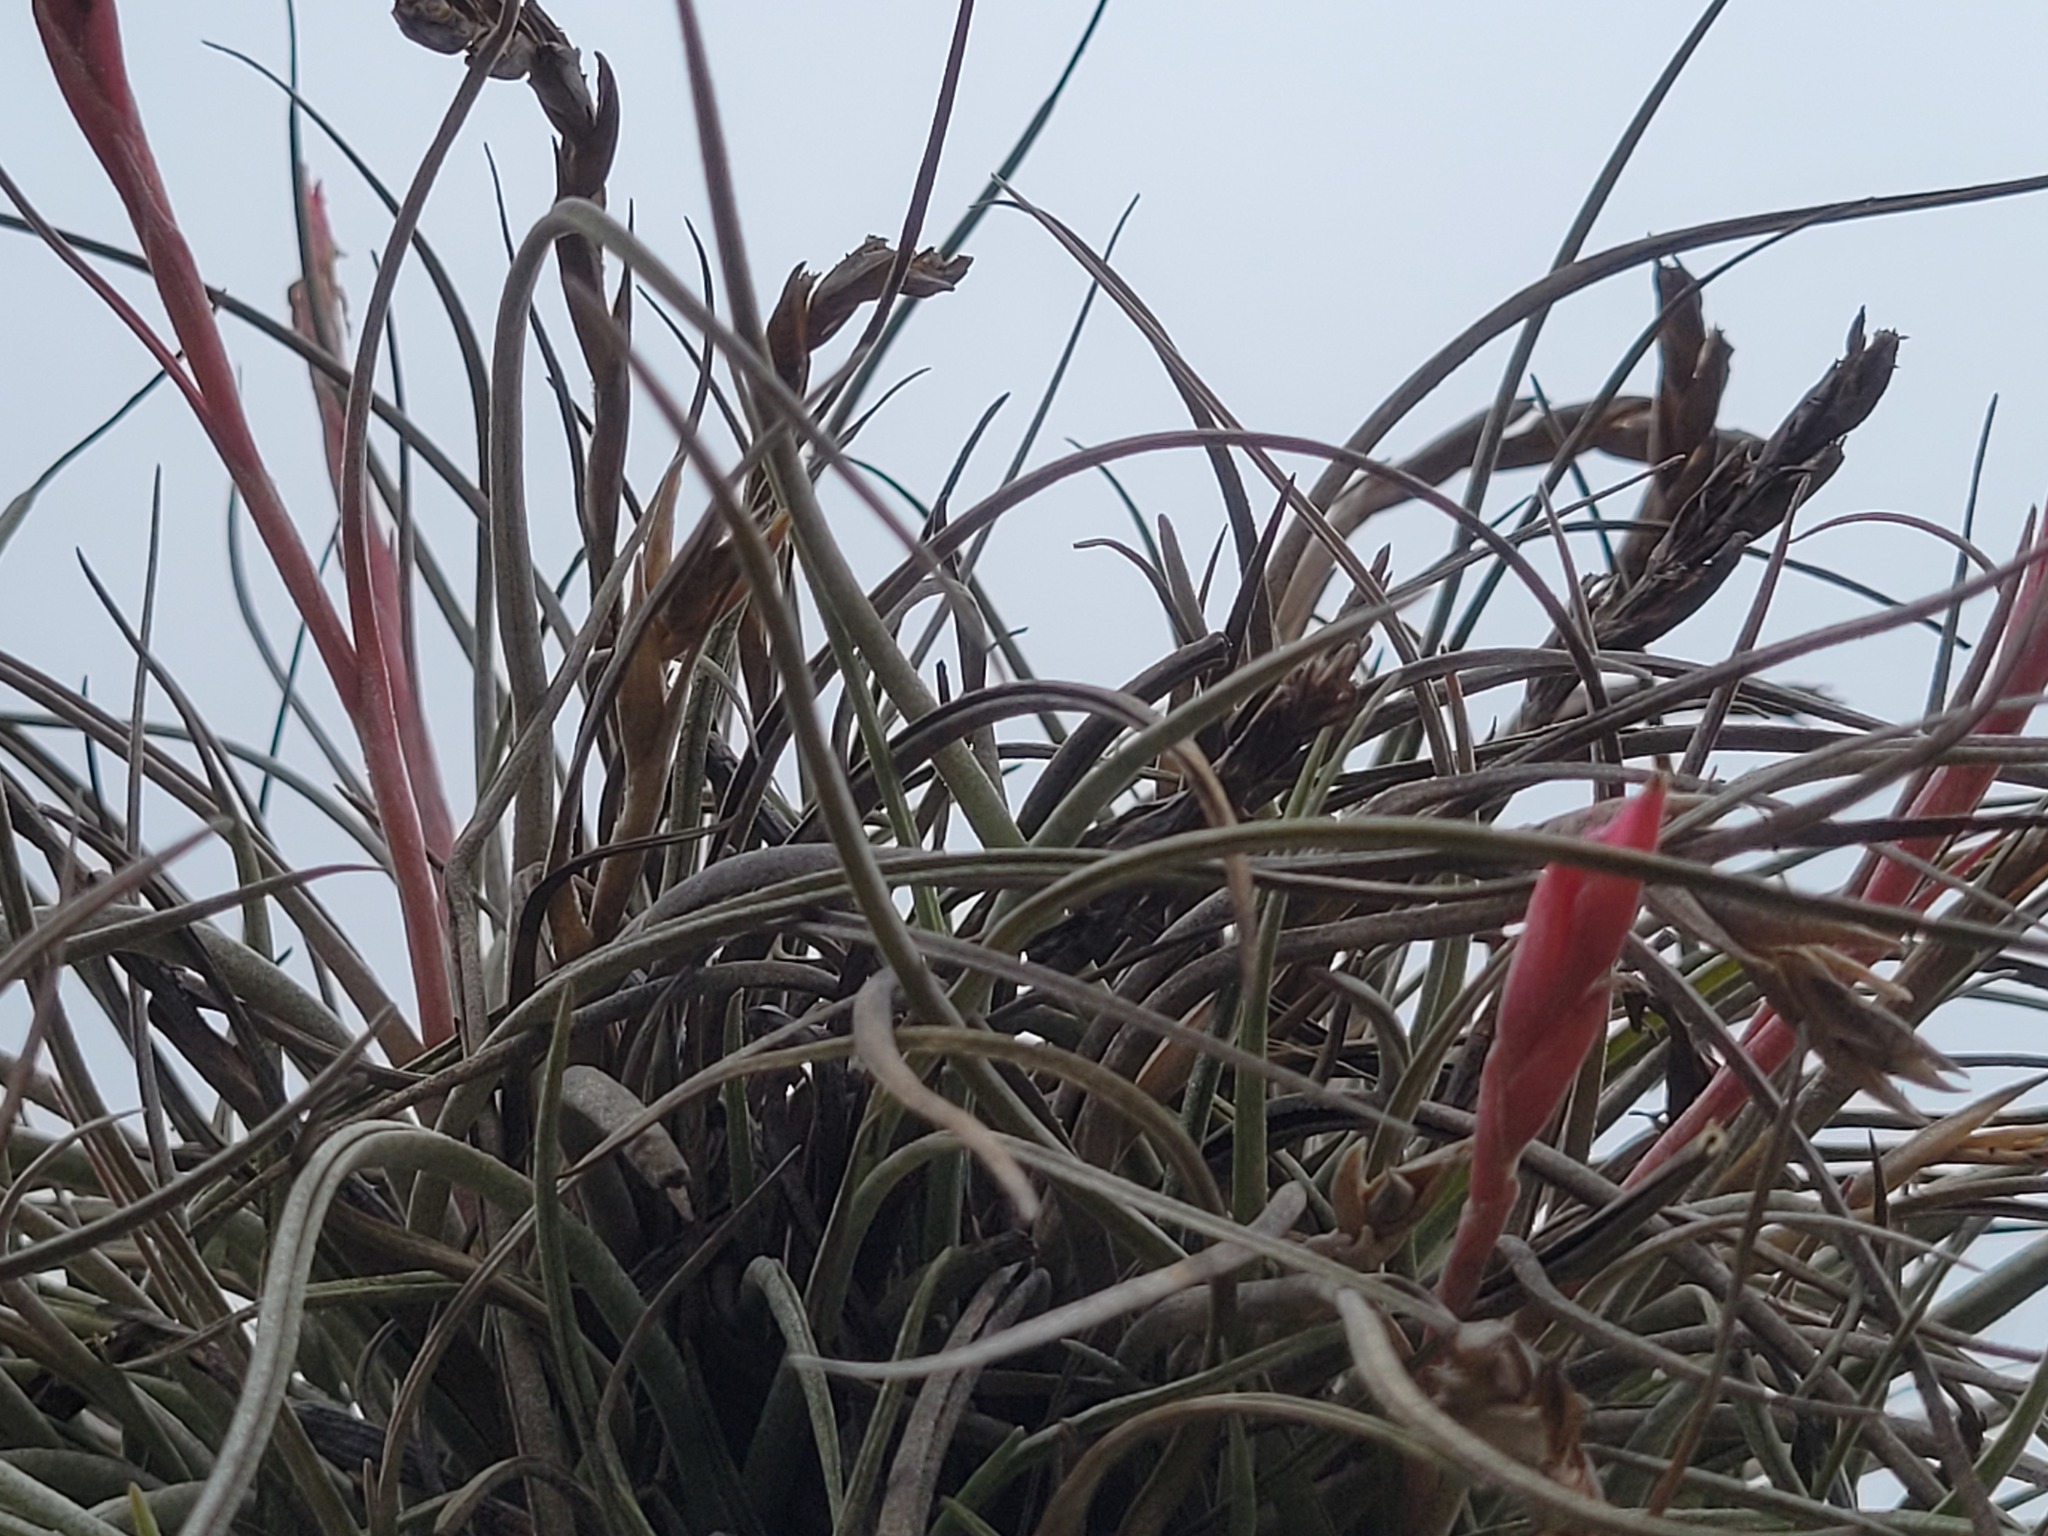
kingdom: Plantae
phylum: Tracheophyta
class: Liliopsida
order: Poales
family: Bromeliaceae
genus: Tillandsia
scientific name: Tillandsia baileyi
